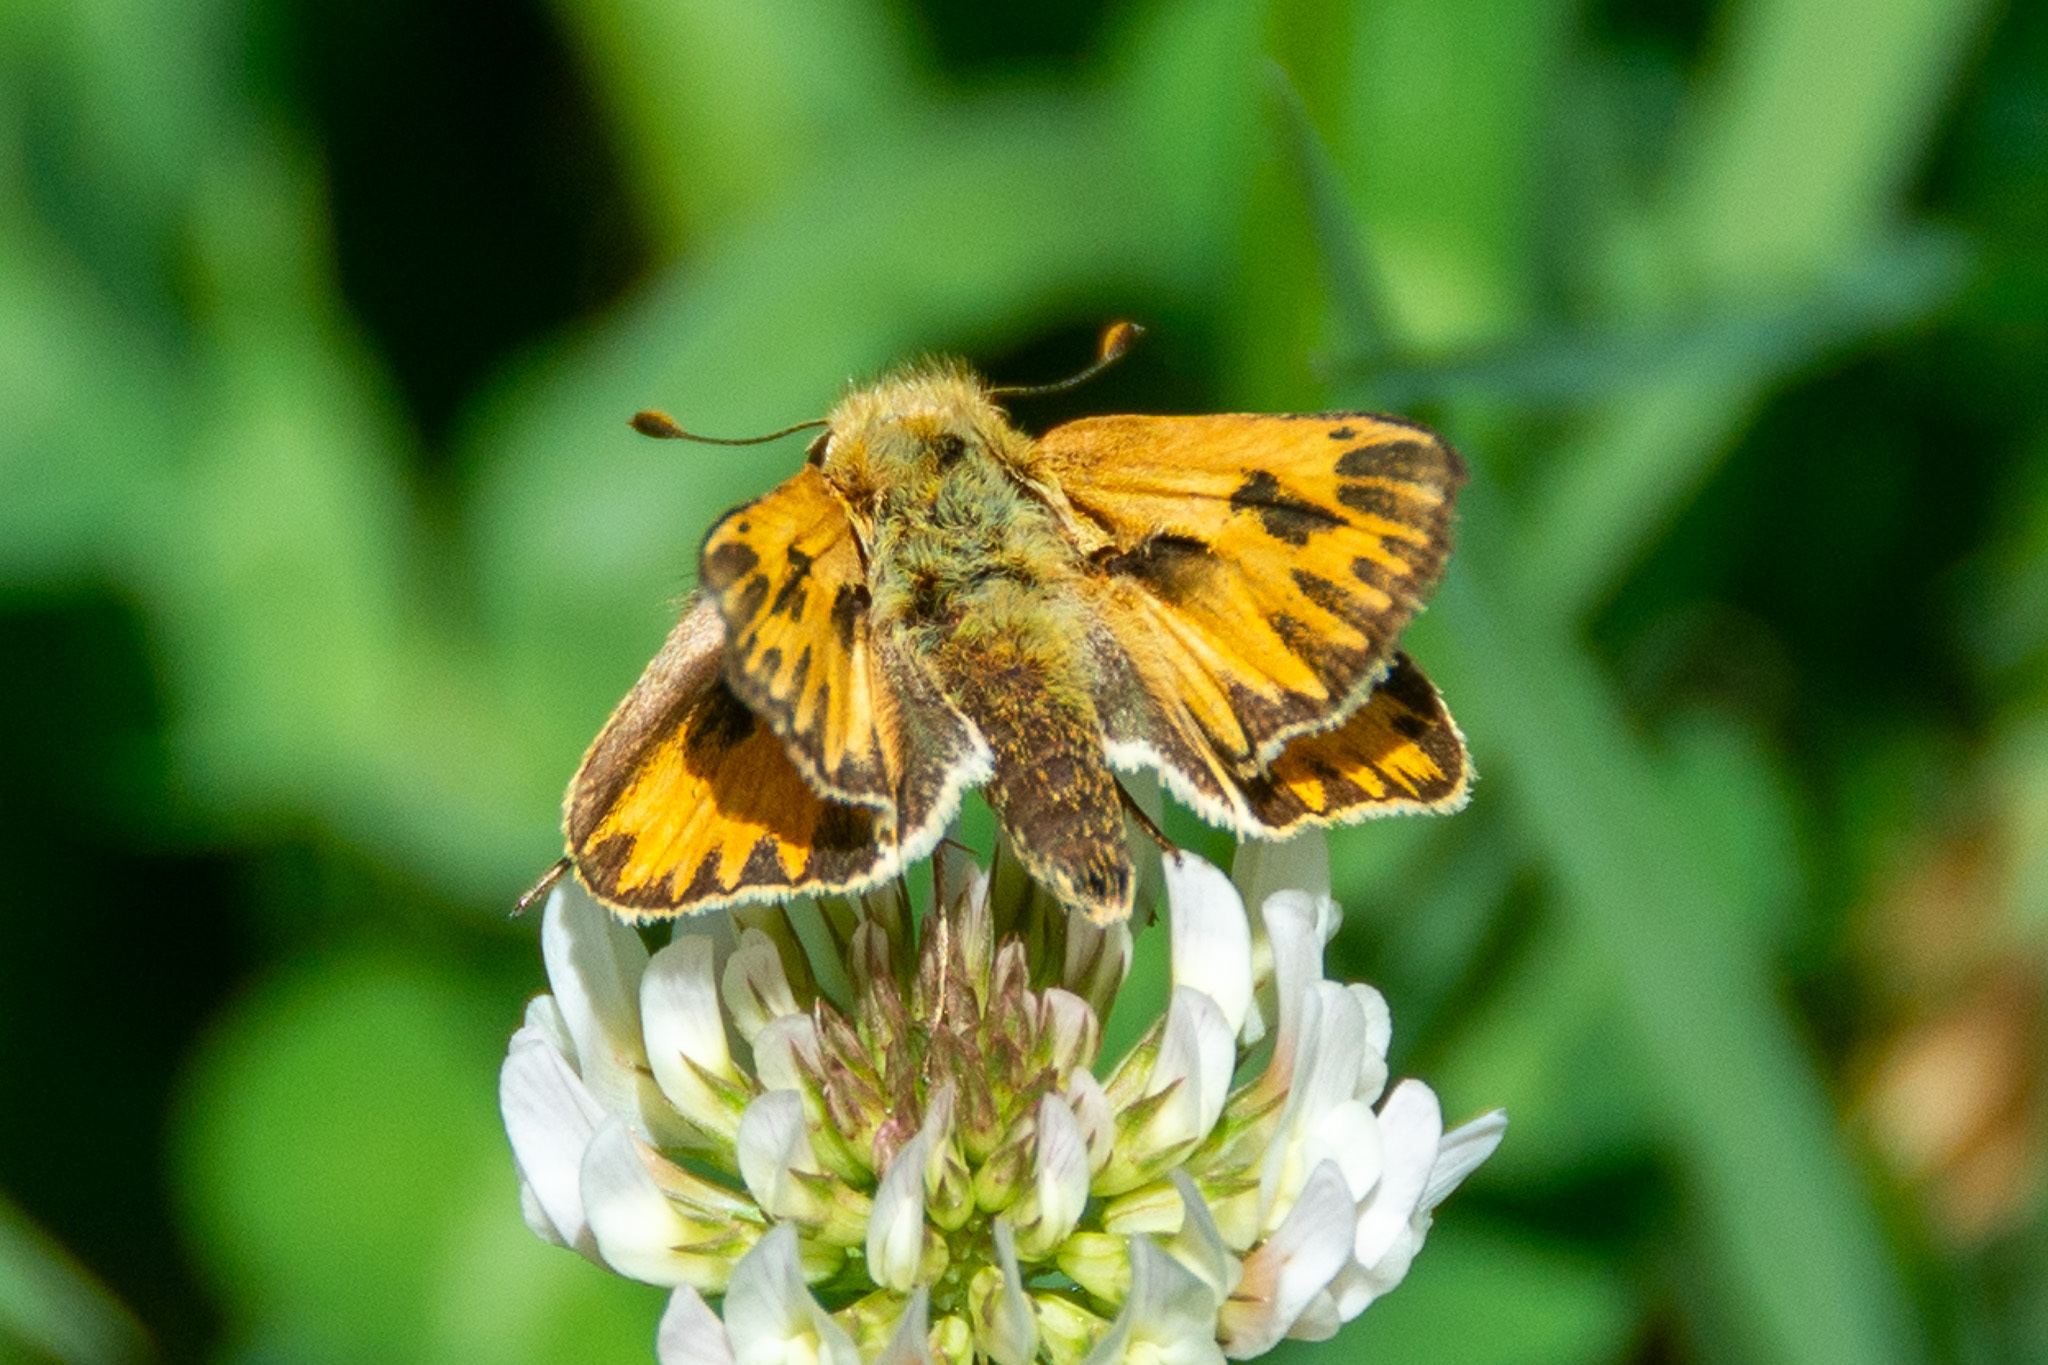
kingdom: Animalia
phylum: Arthropoda
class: Insecta
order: Lepidoptera
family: Hesperiidae
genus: Hylephila
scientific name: Hylephila phyleus
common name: Fiery skipper
